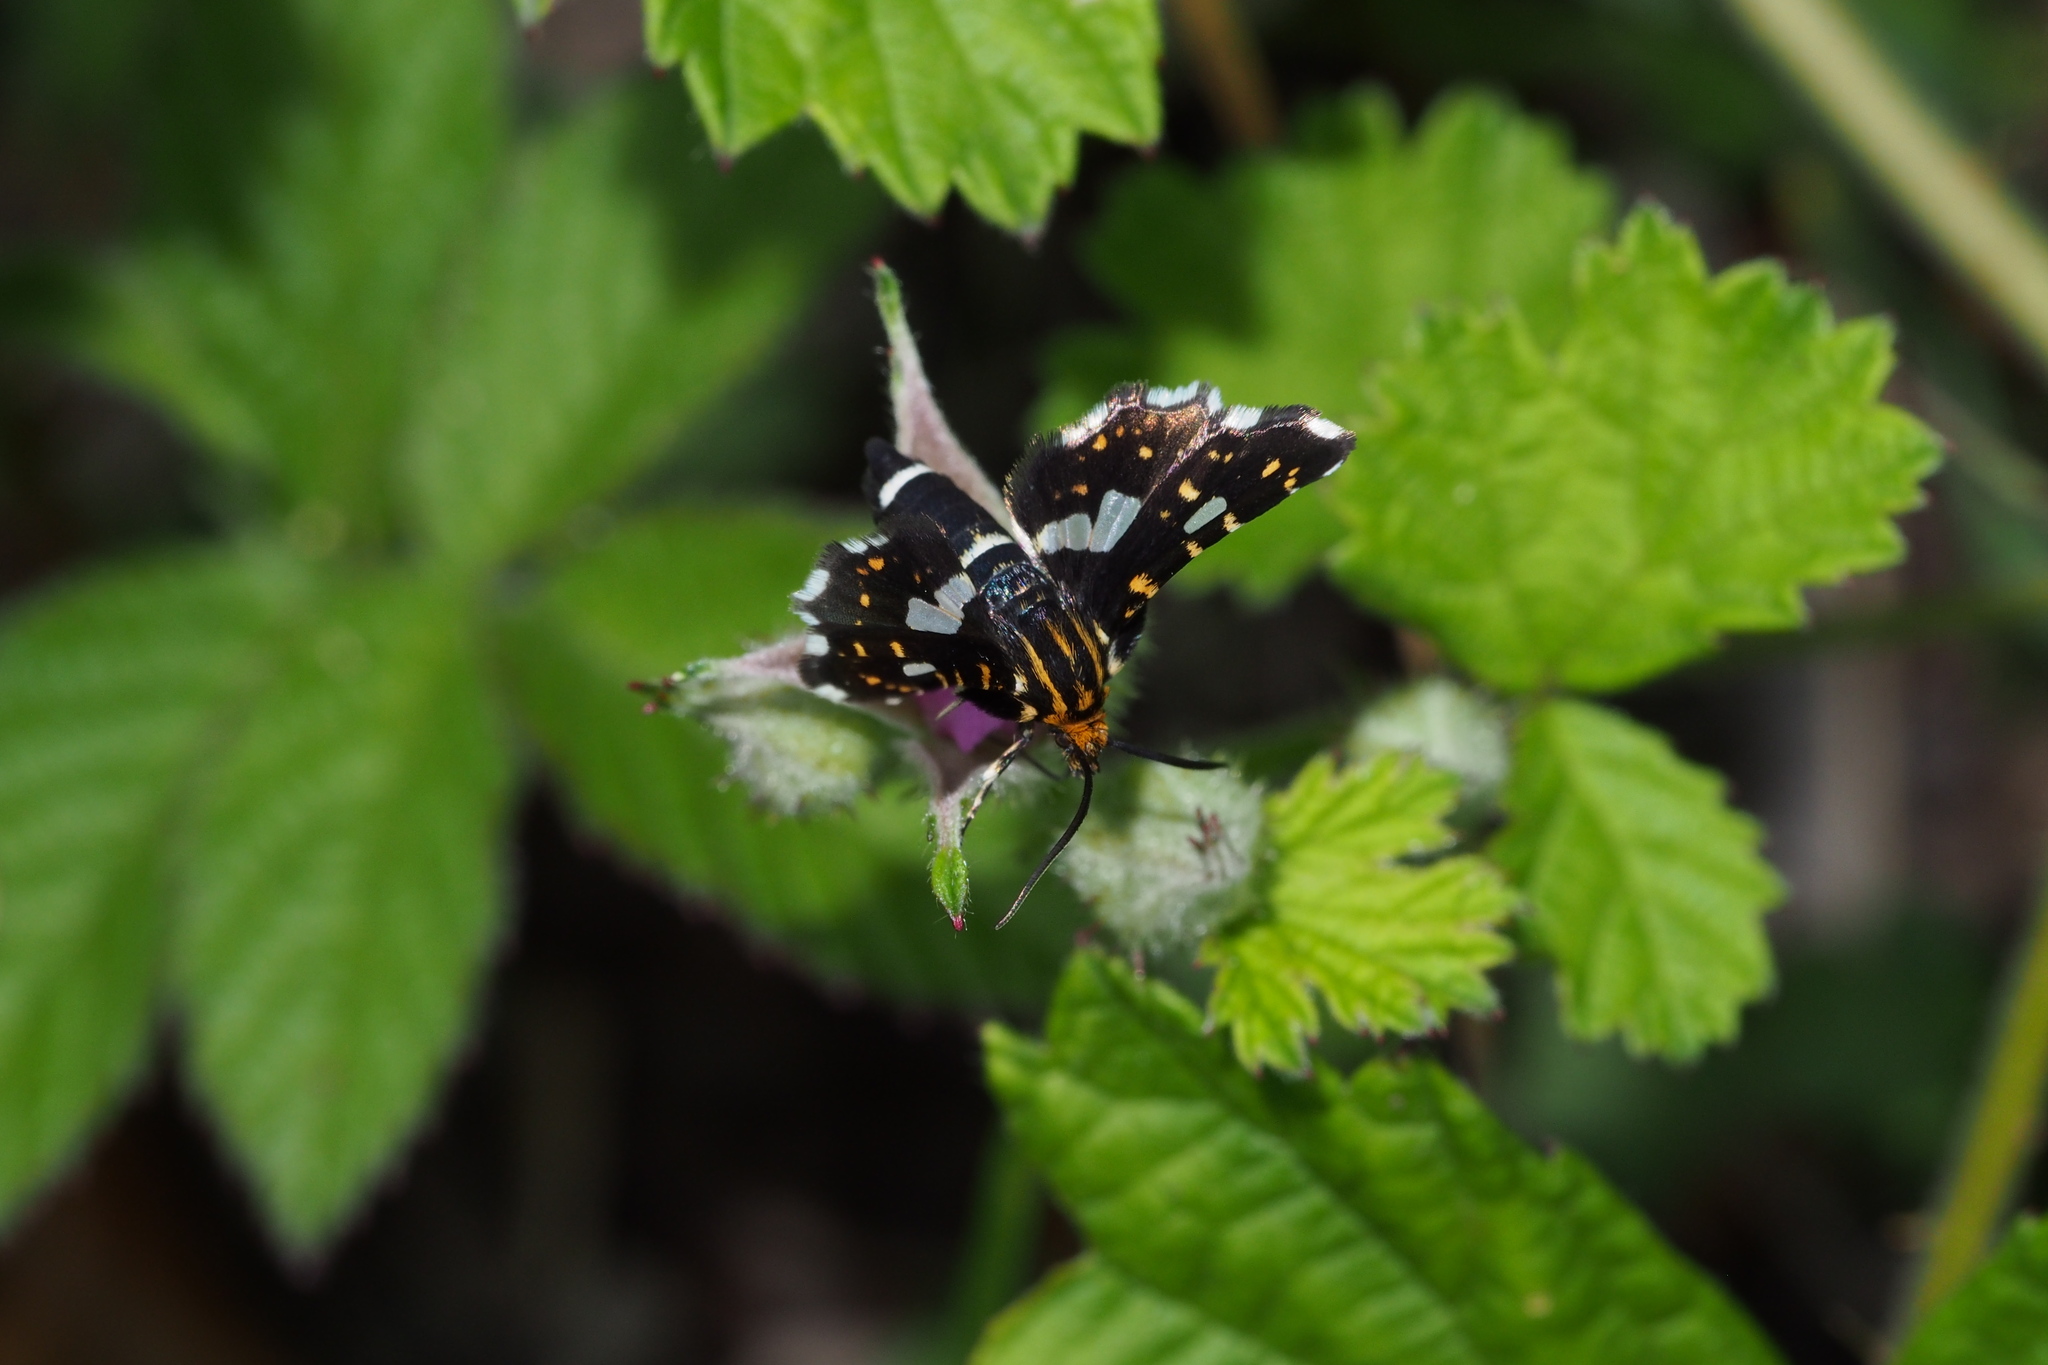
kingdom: Animalia
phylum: Arthropoda
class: Insecta
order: Lepidoptera
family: Thyrididae
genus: Thyris
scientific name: Thyris usitata
